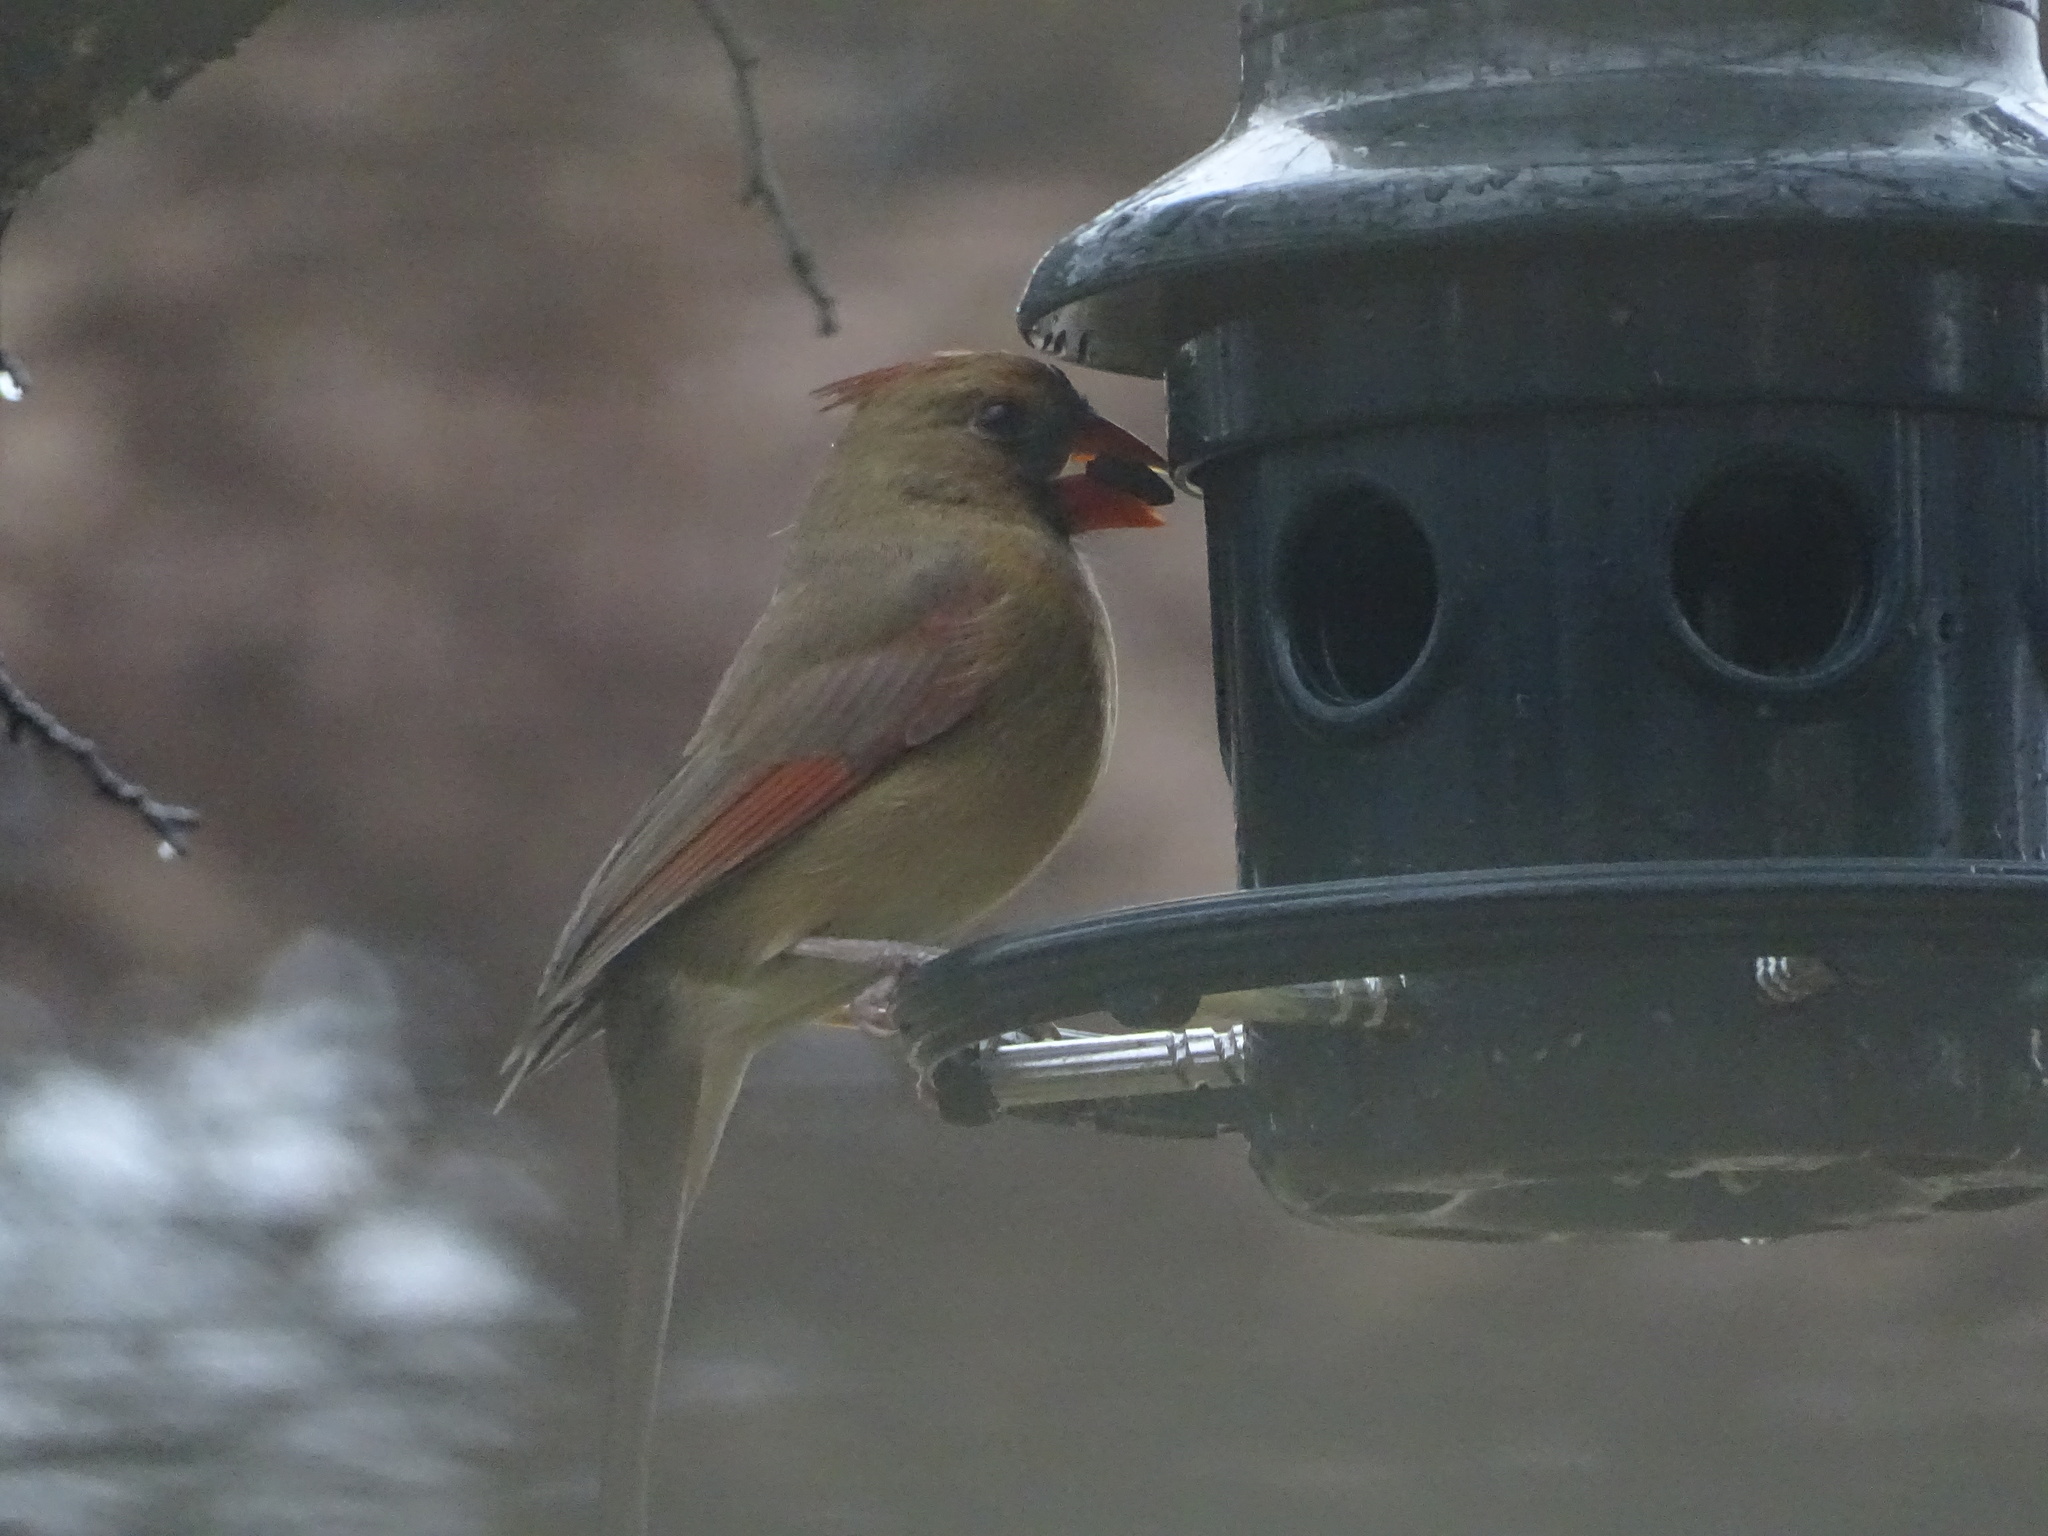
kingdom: Animalia
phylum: Chordata
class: Aves
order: Passeriformes
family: Cardinalidae
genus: Cardinalis
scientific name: Cardinalis cardinalis
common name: Northern cardinal
